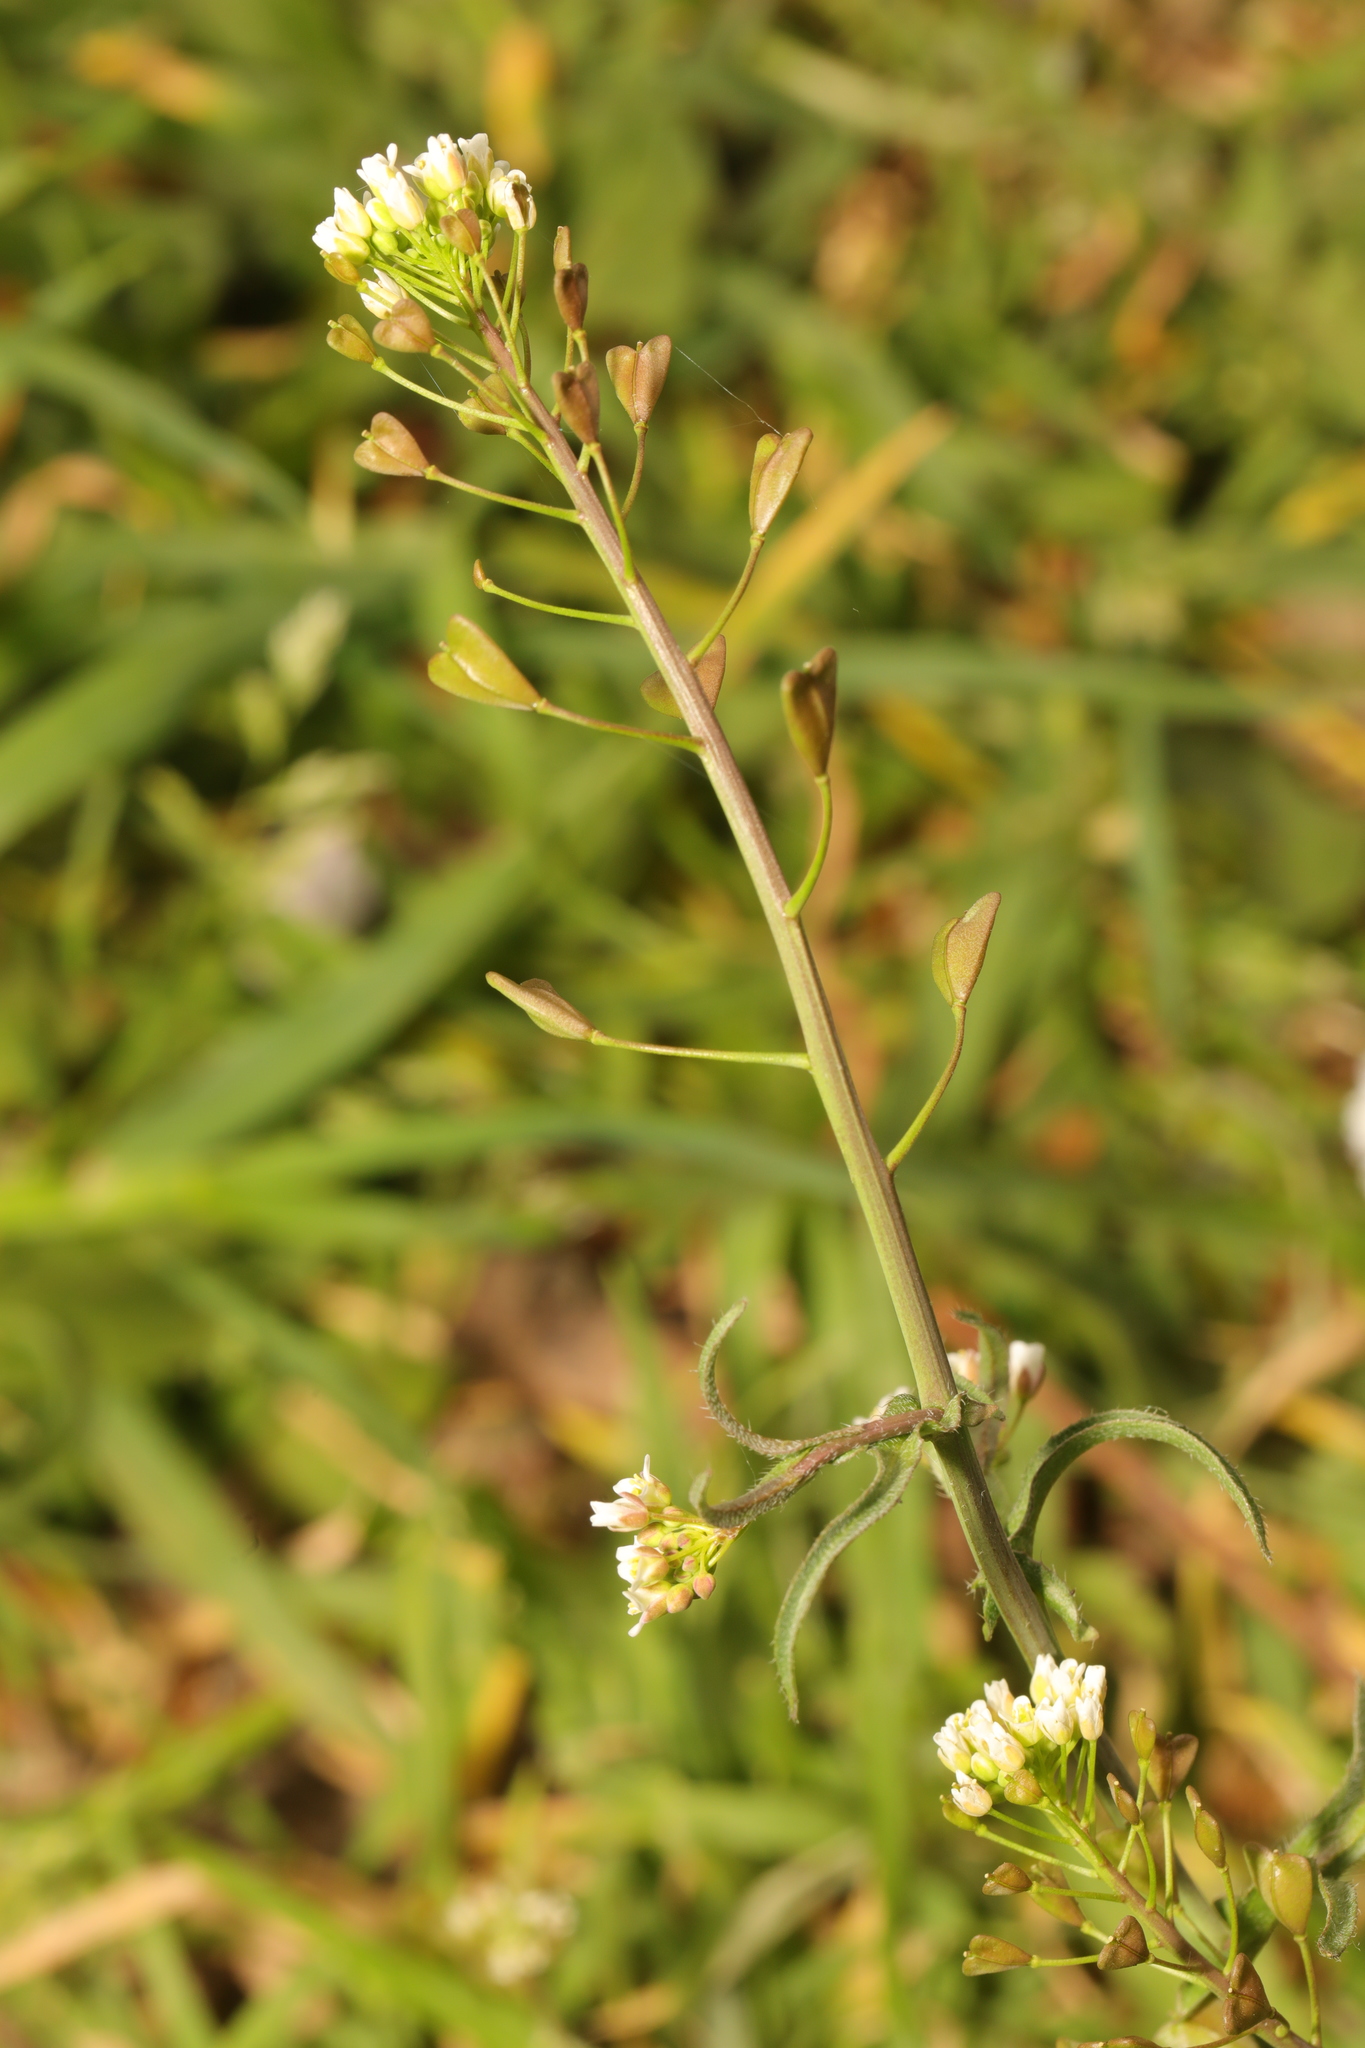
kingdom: Plantae
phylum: Tracheophyta
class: Magnoliopsida
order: Brassicales
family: Brassicaceae
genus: Capsella
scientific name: Capsella bursa-pastoris
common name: Shepherd's purse
